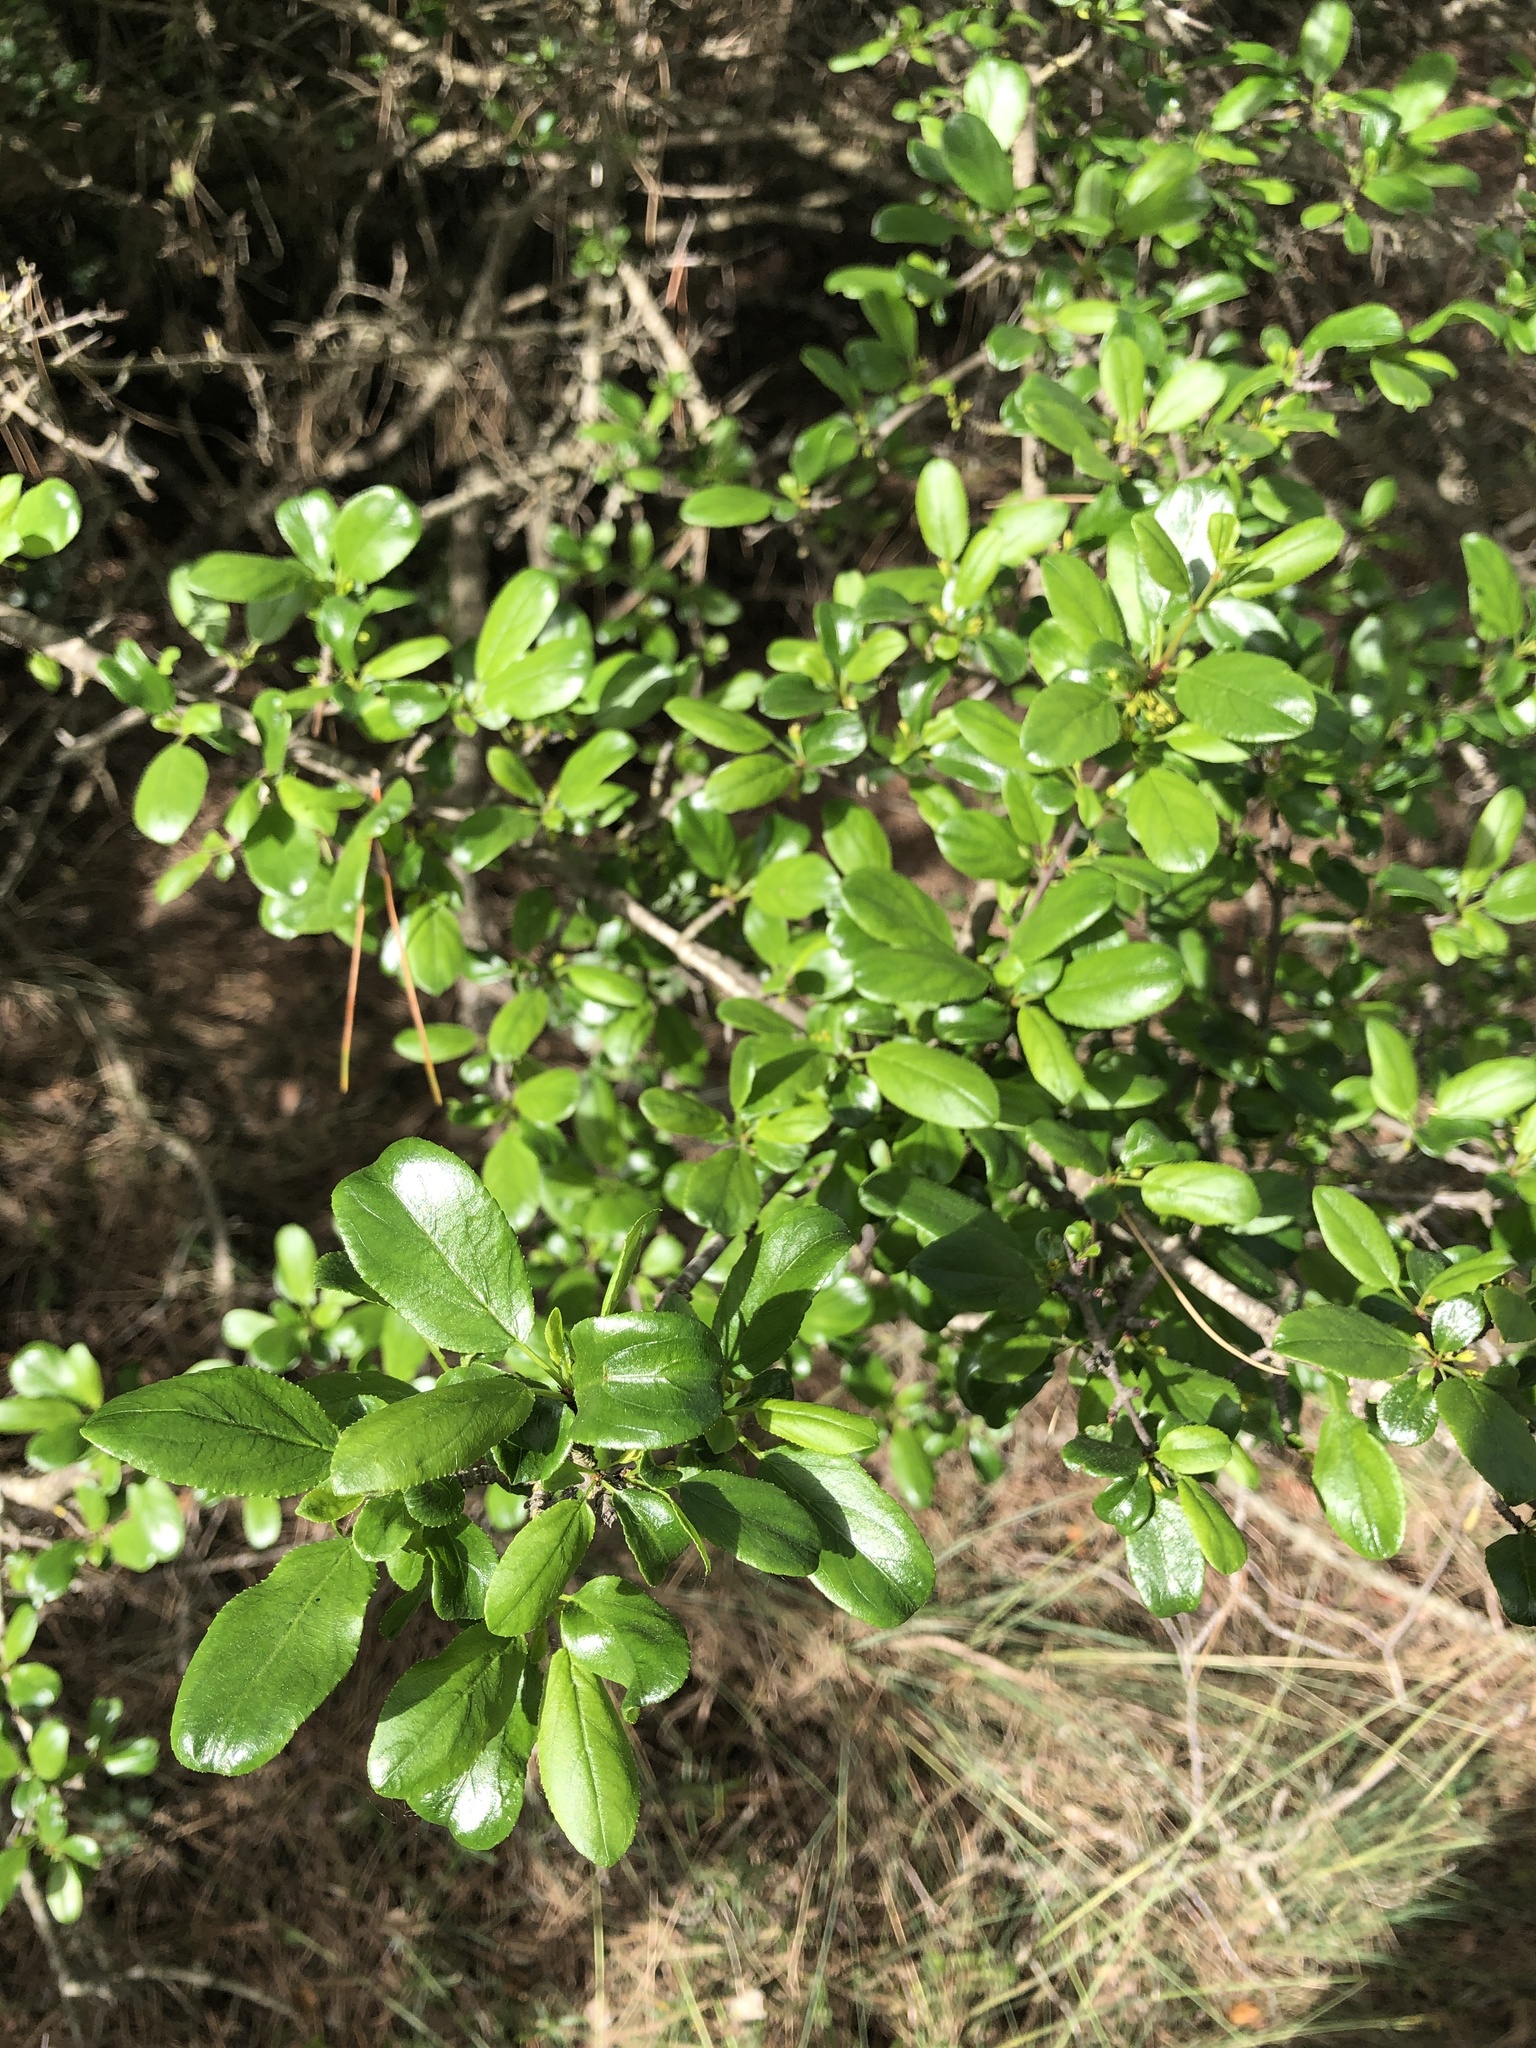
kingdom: Plantae
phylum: Tracheophyta
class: Magnoliopsida
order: Rosales
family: Rhamnaceae
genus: Rhamnus
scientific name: Rhamnus saxatilis
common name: Rock buckthorn
